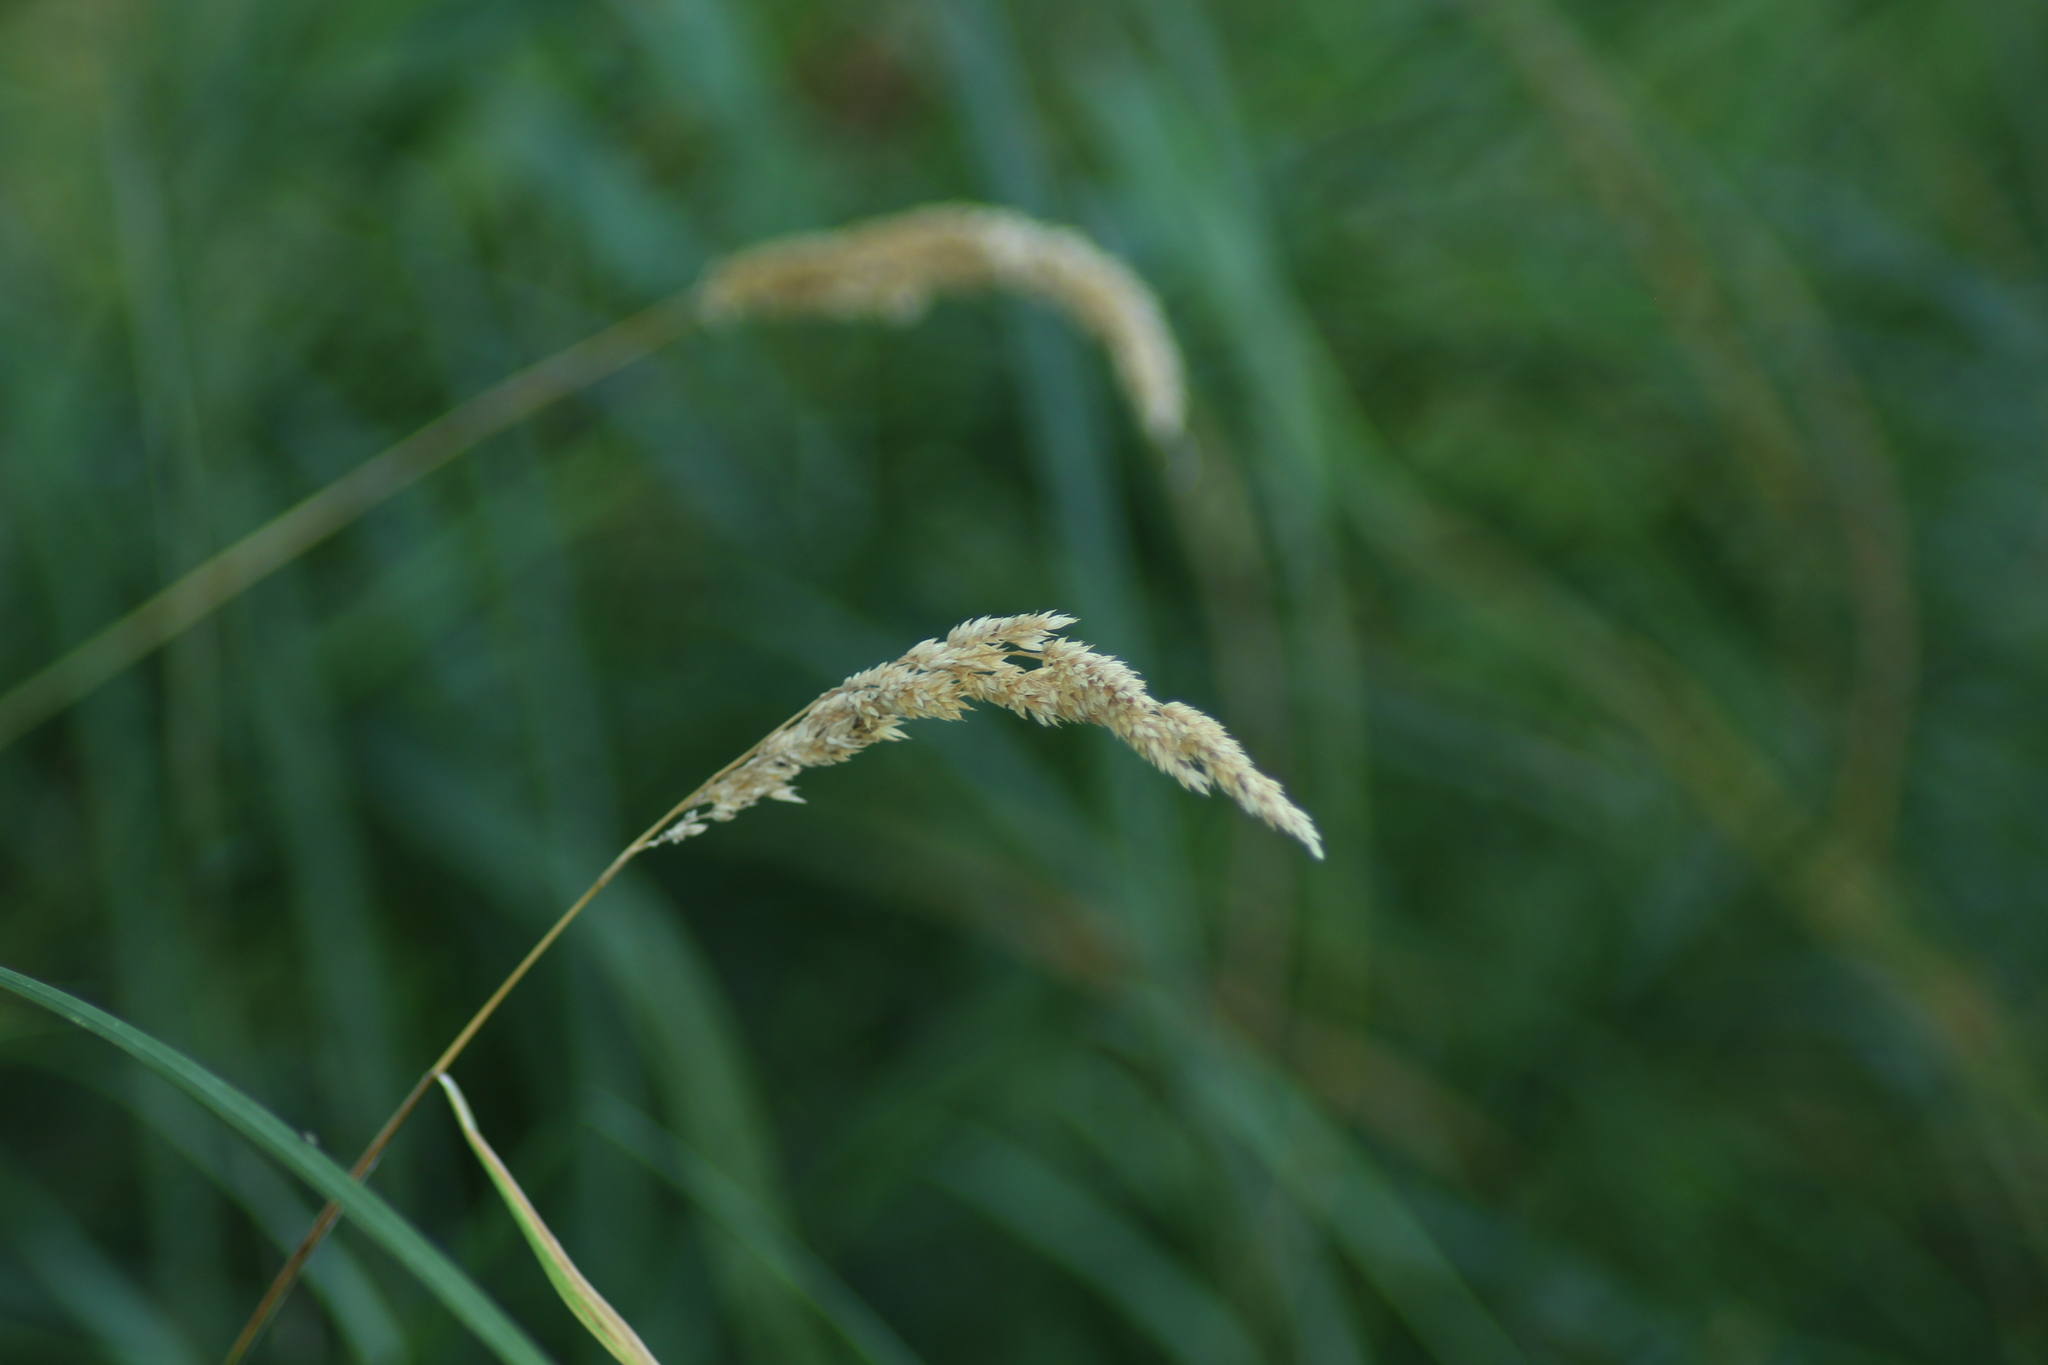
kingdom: Plantae
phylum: Tracheophyta
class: Liliopsida
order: Poales
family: Poaceae
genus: Phalaris
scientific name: Phalaris arundinacea
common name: Reed canary-grass
